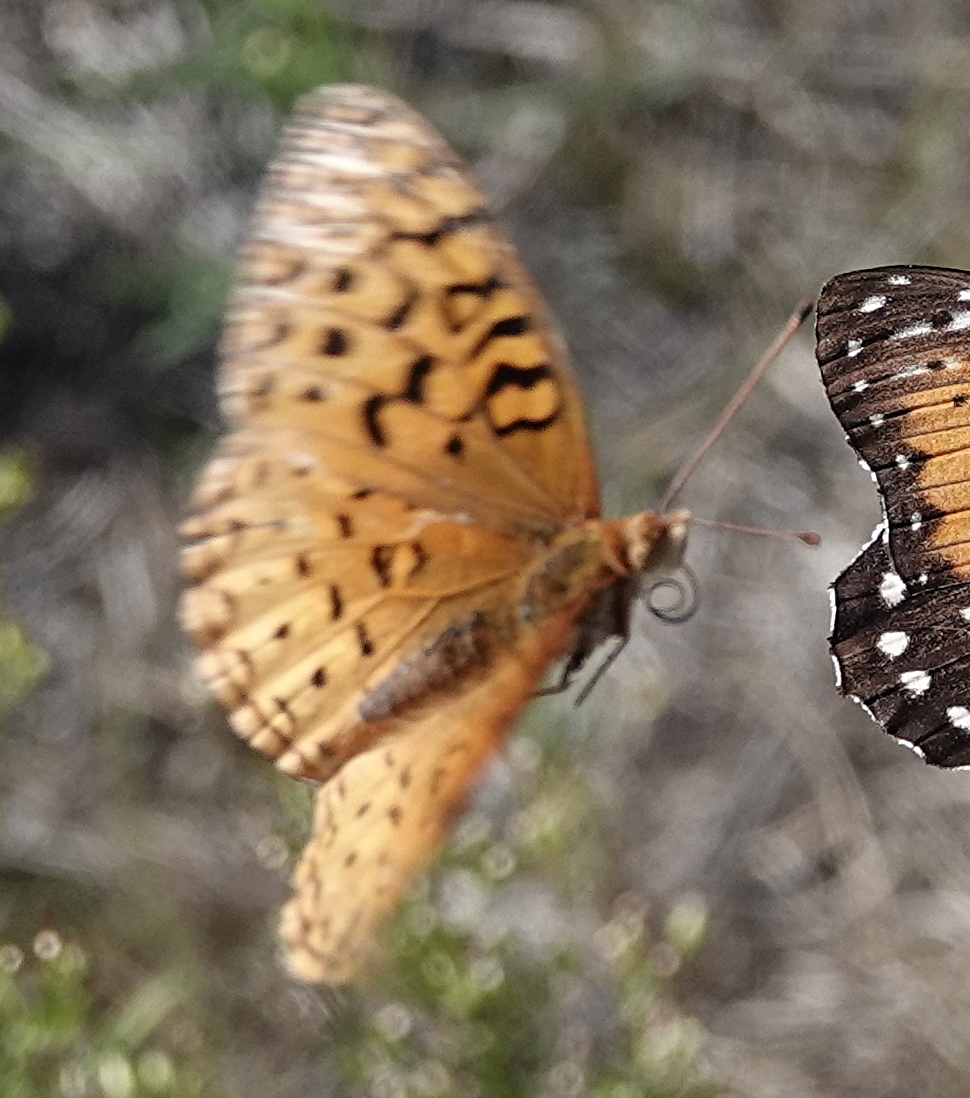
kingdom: Animalia
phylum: Arthropoda
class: Insecta
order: Lepidoptera
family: Nymphalidae
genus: Speyeria
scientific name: Speyeria aphrodite
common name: Aphrodite friitllary
